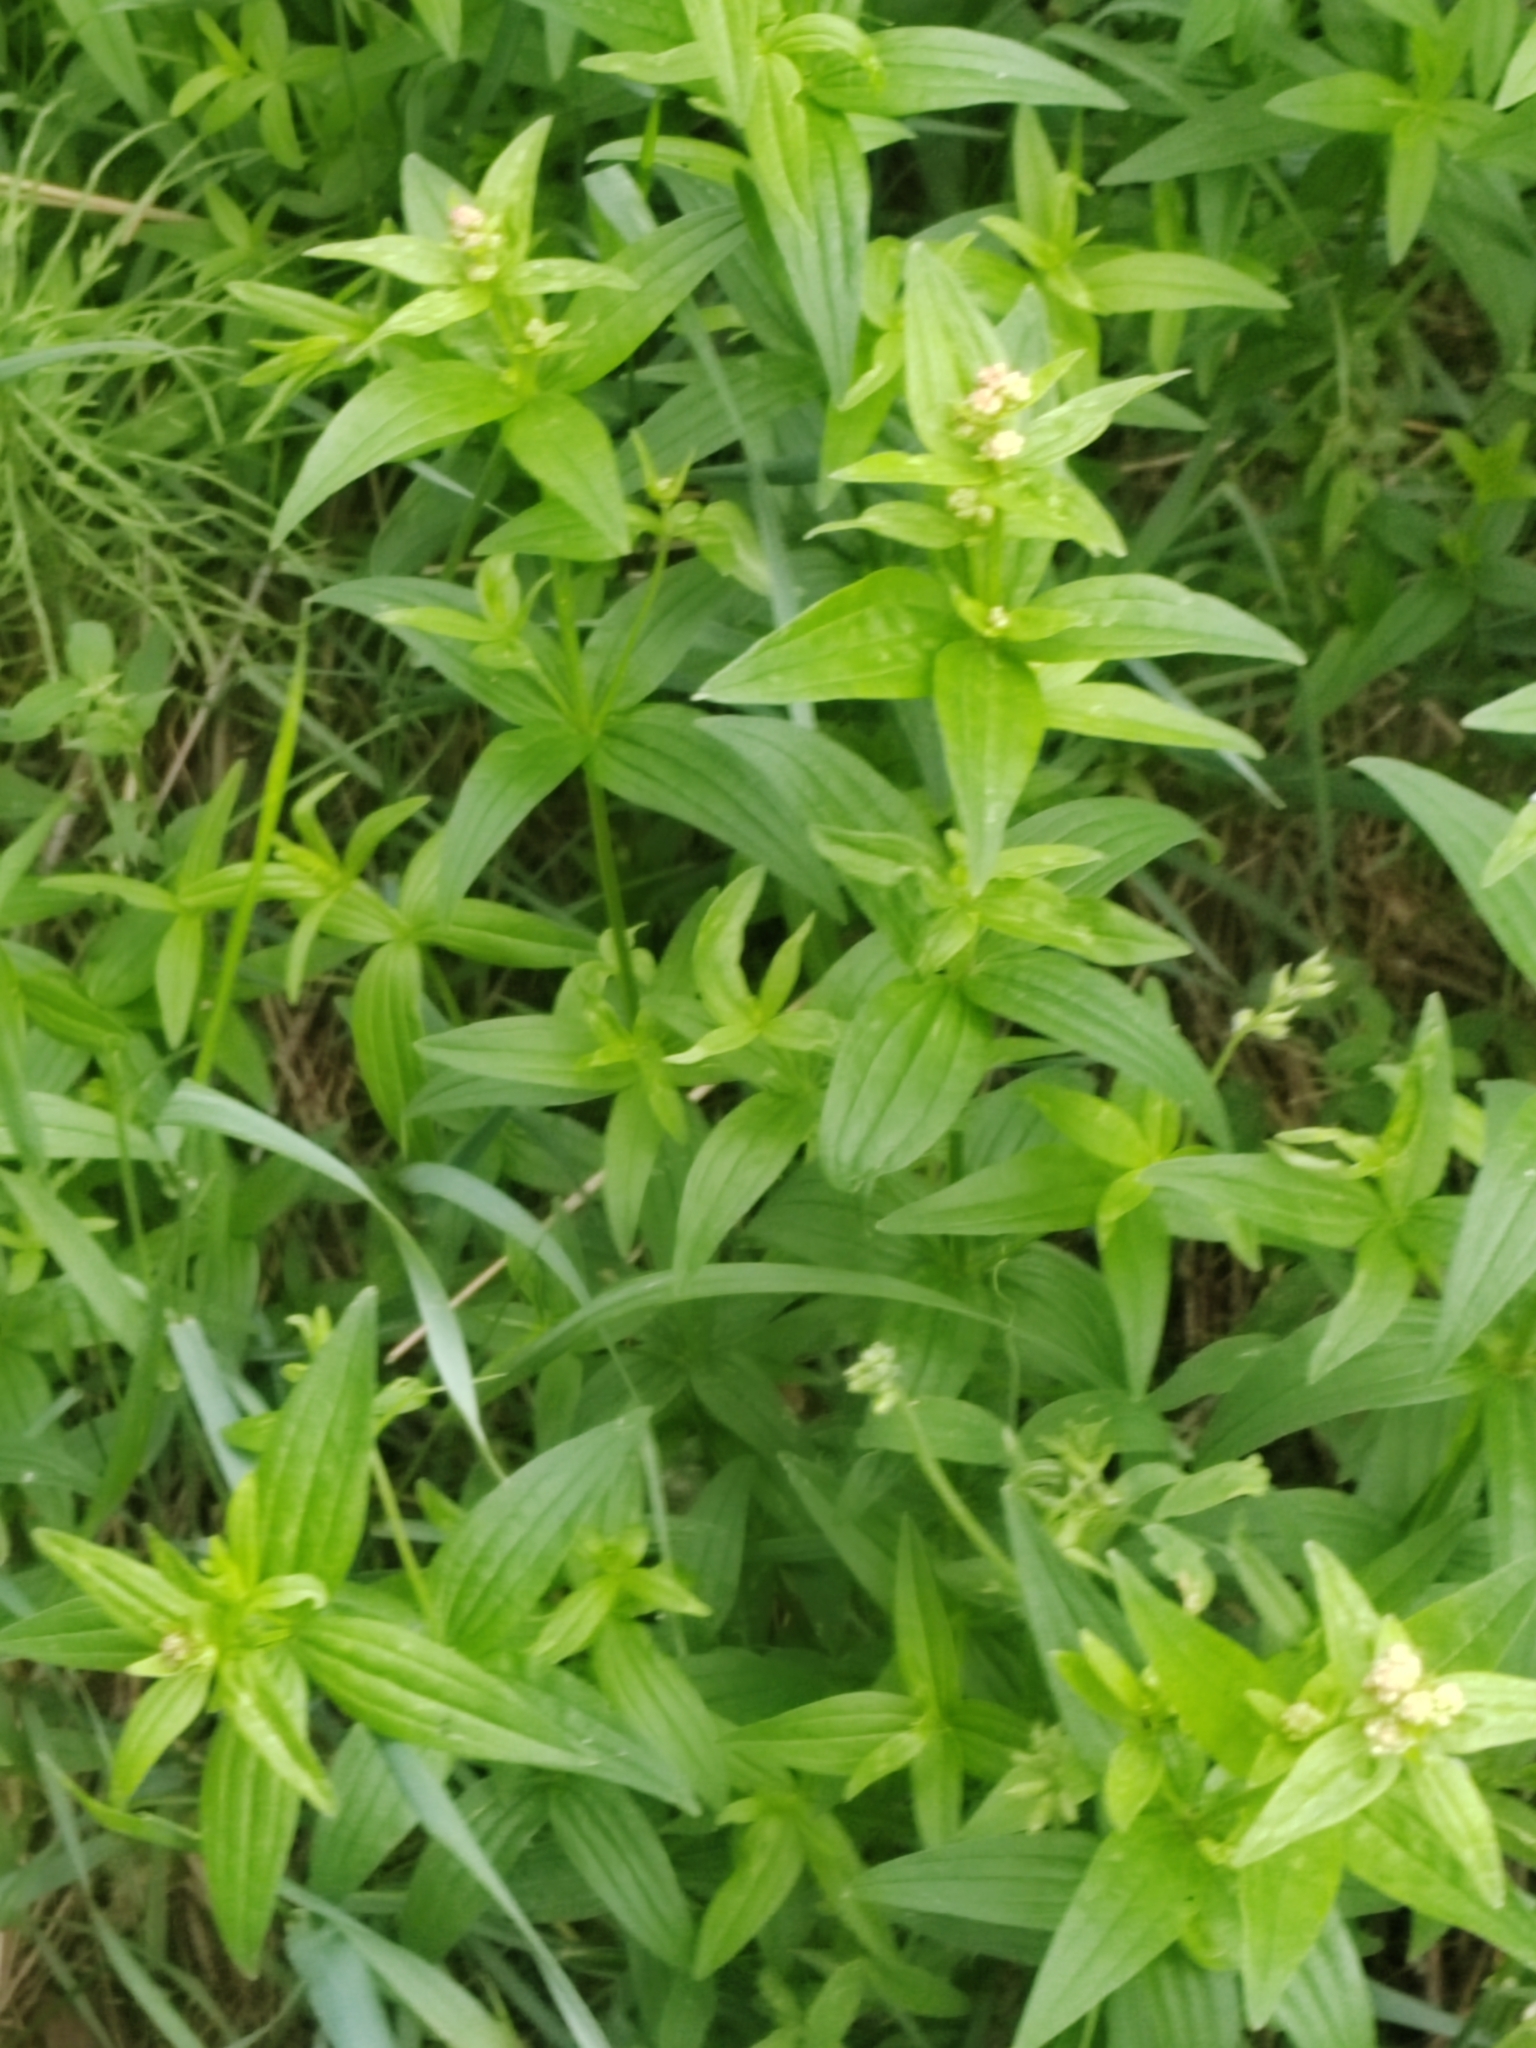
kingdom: Plantae
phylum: Tracheophyta
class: Magnoliopsida
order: Gentianales
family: Rubiaceae
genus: Galium
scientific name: Galium boreale
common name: Northern bedstraw
